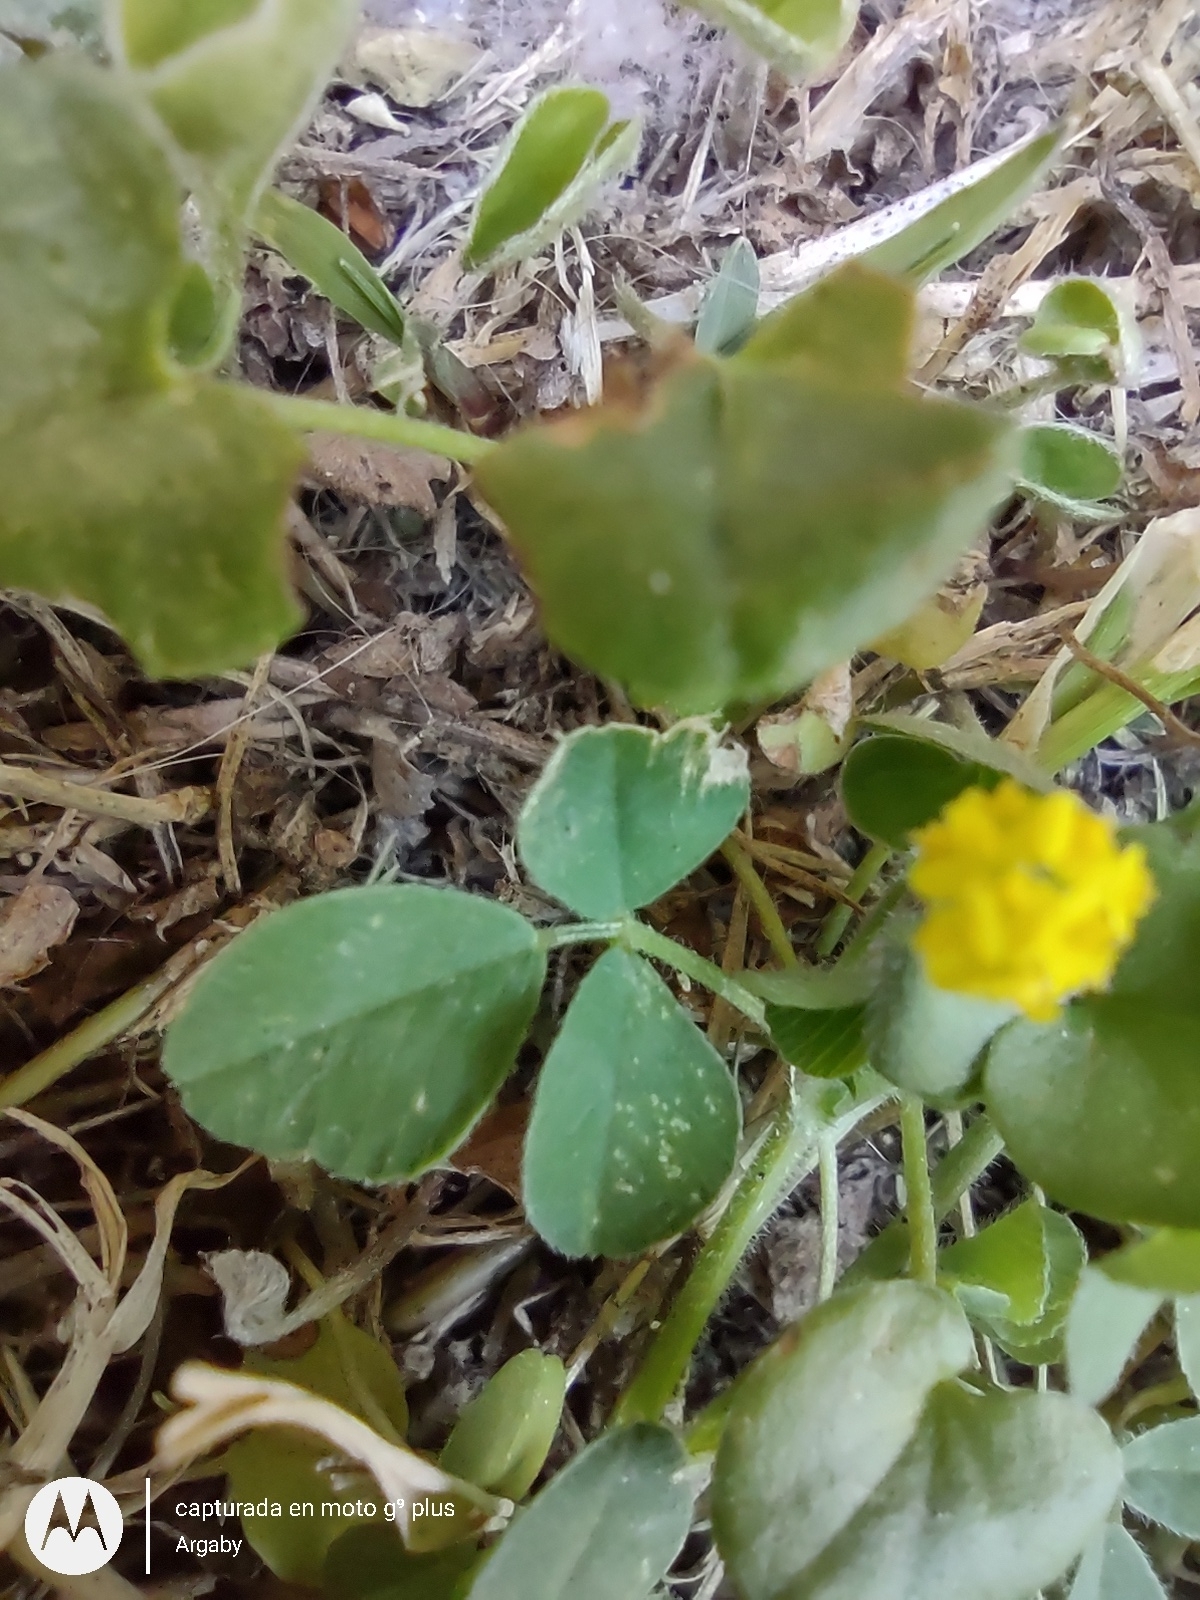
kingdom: Plantae
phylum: Tracheophyta
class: Magnoliopsida
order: Fabales
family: Fabaceae
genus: Medicago
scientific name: Medicago lupulina
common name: Black medick
